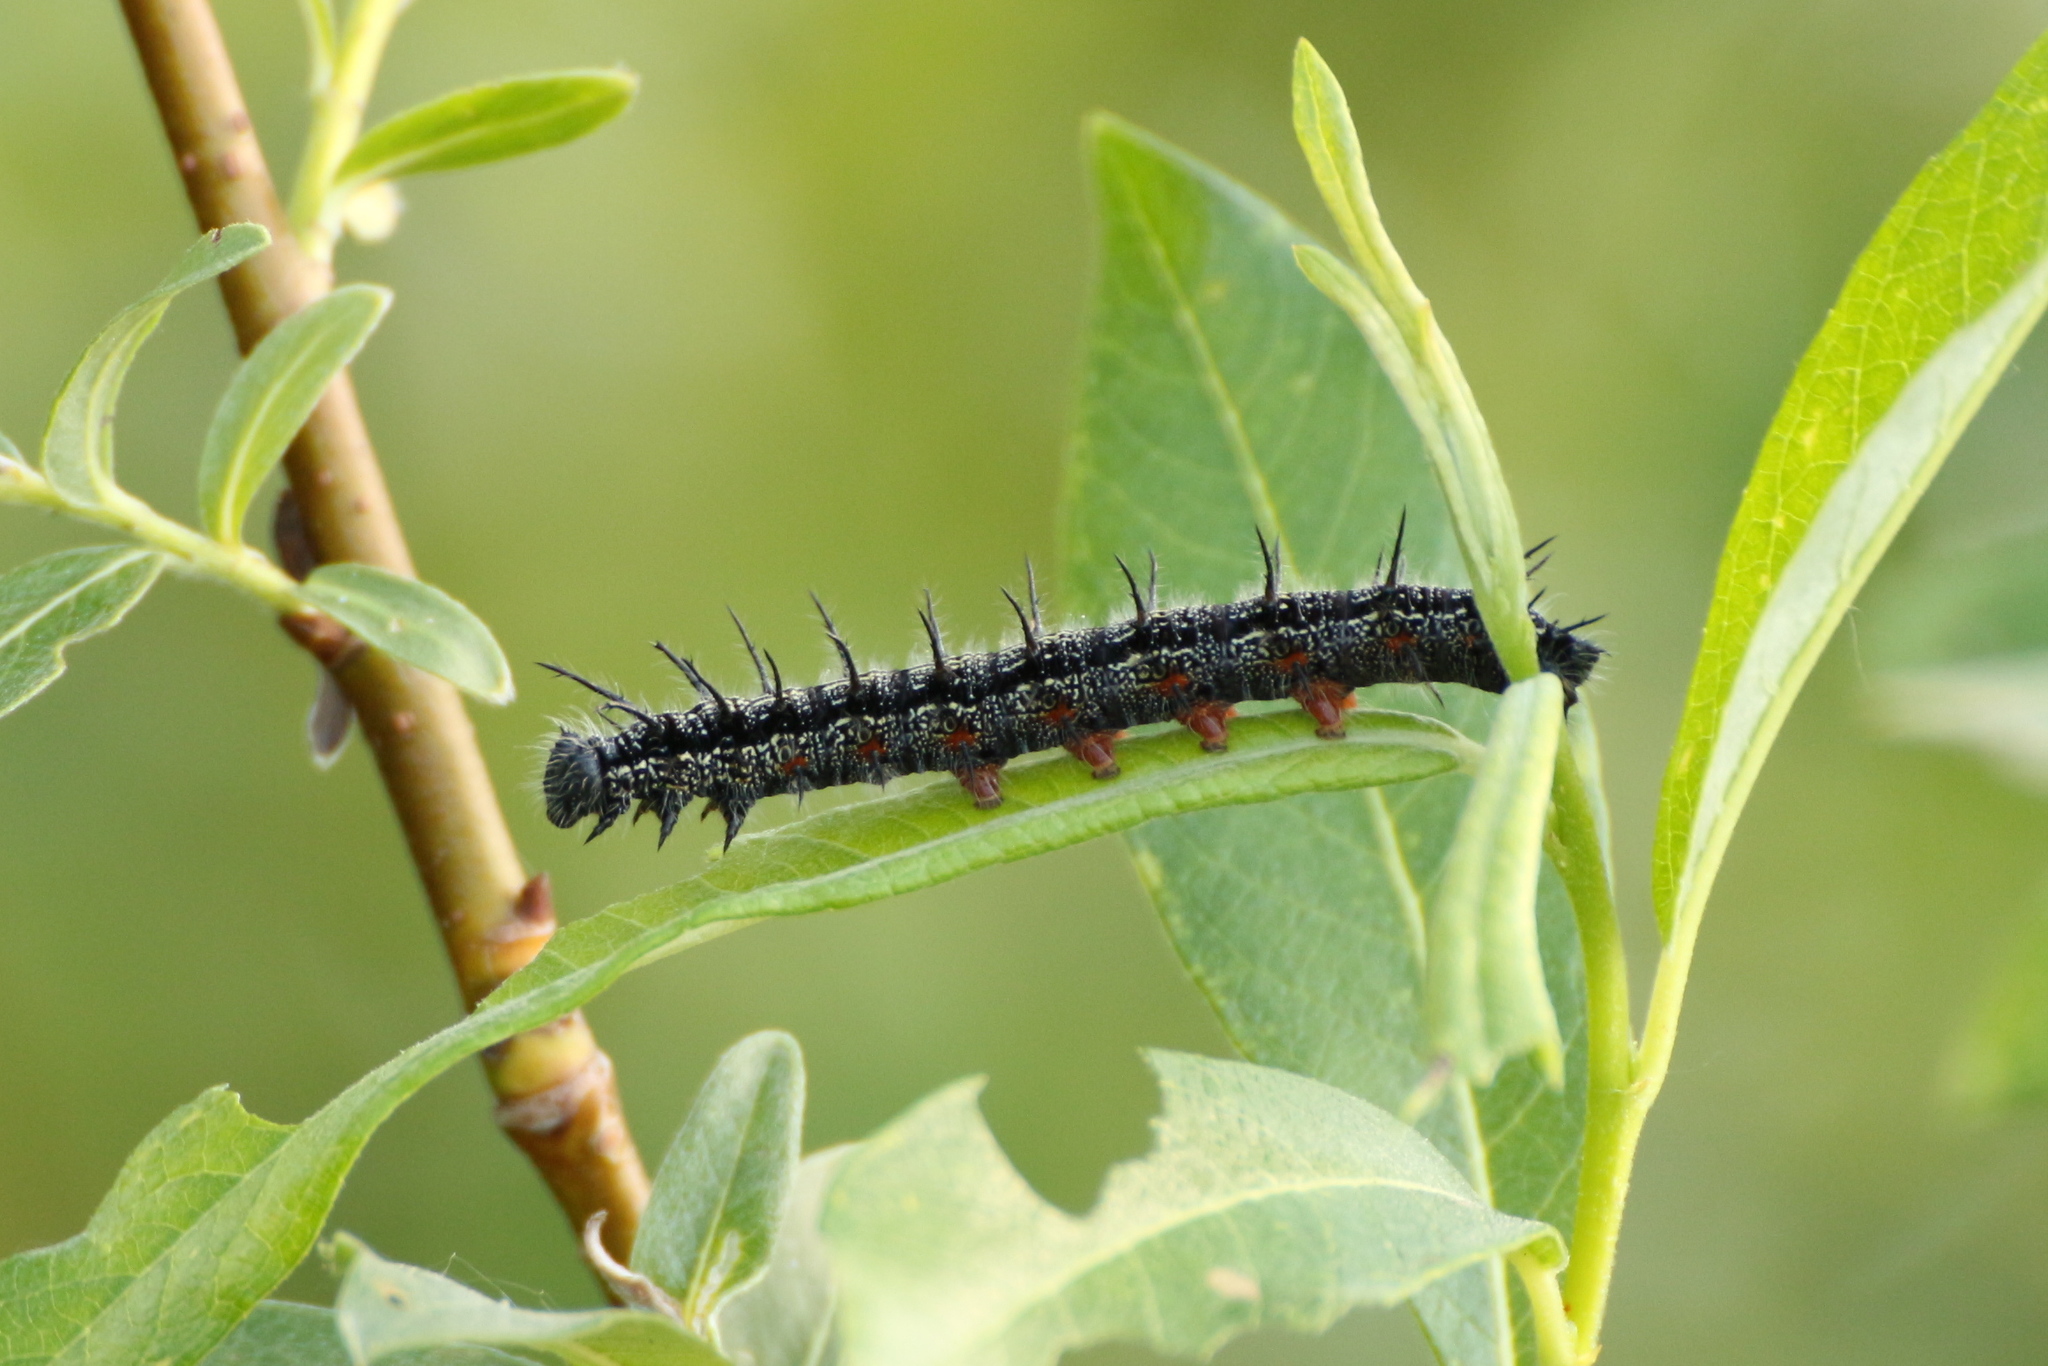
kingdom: Animalia
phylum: Arthropoda
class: Insecta
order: Lepidoptera
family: Nymphalidae
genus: Nymphalis
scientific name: Nymphalis xanthomelas
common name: Scarce tortoiseshell
